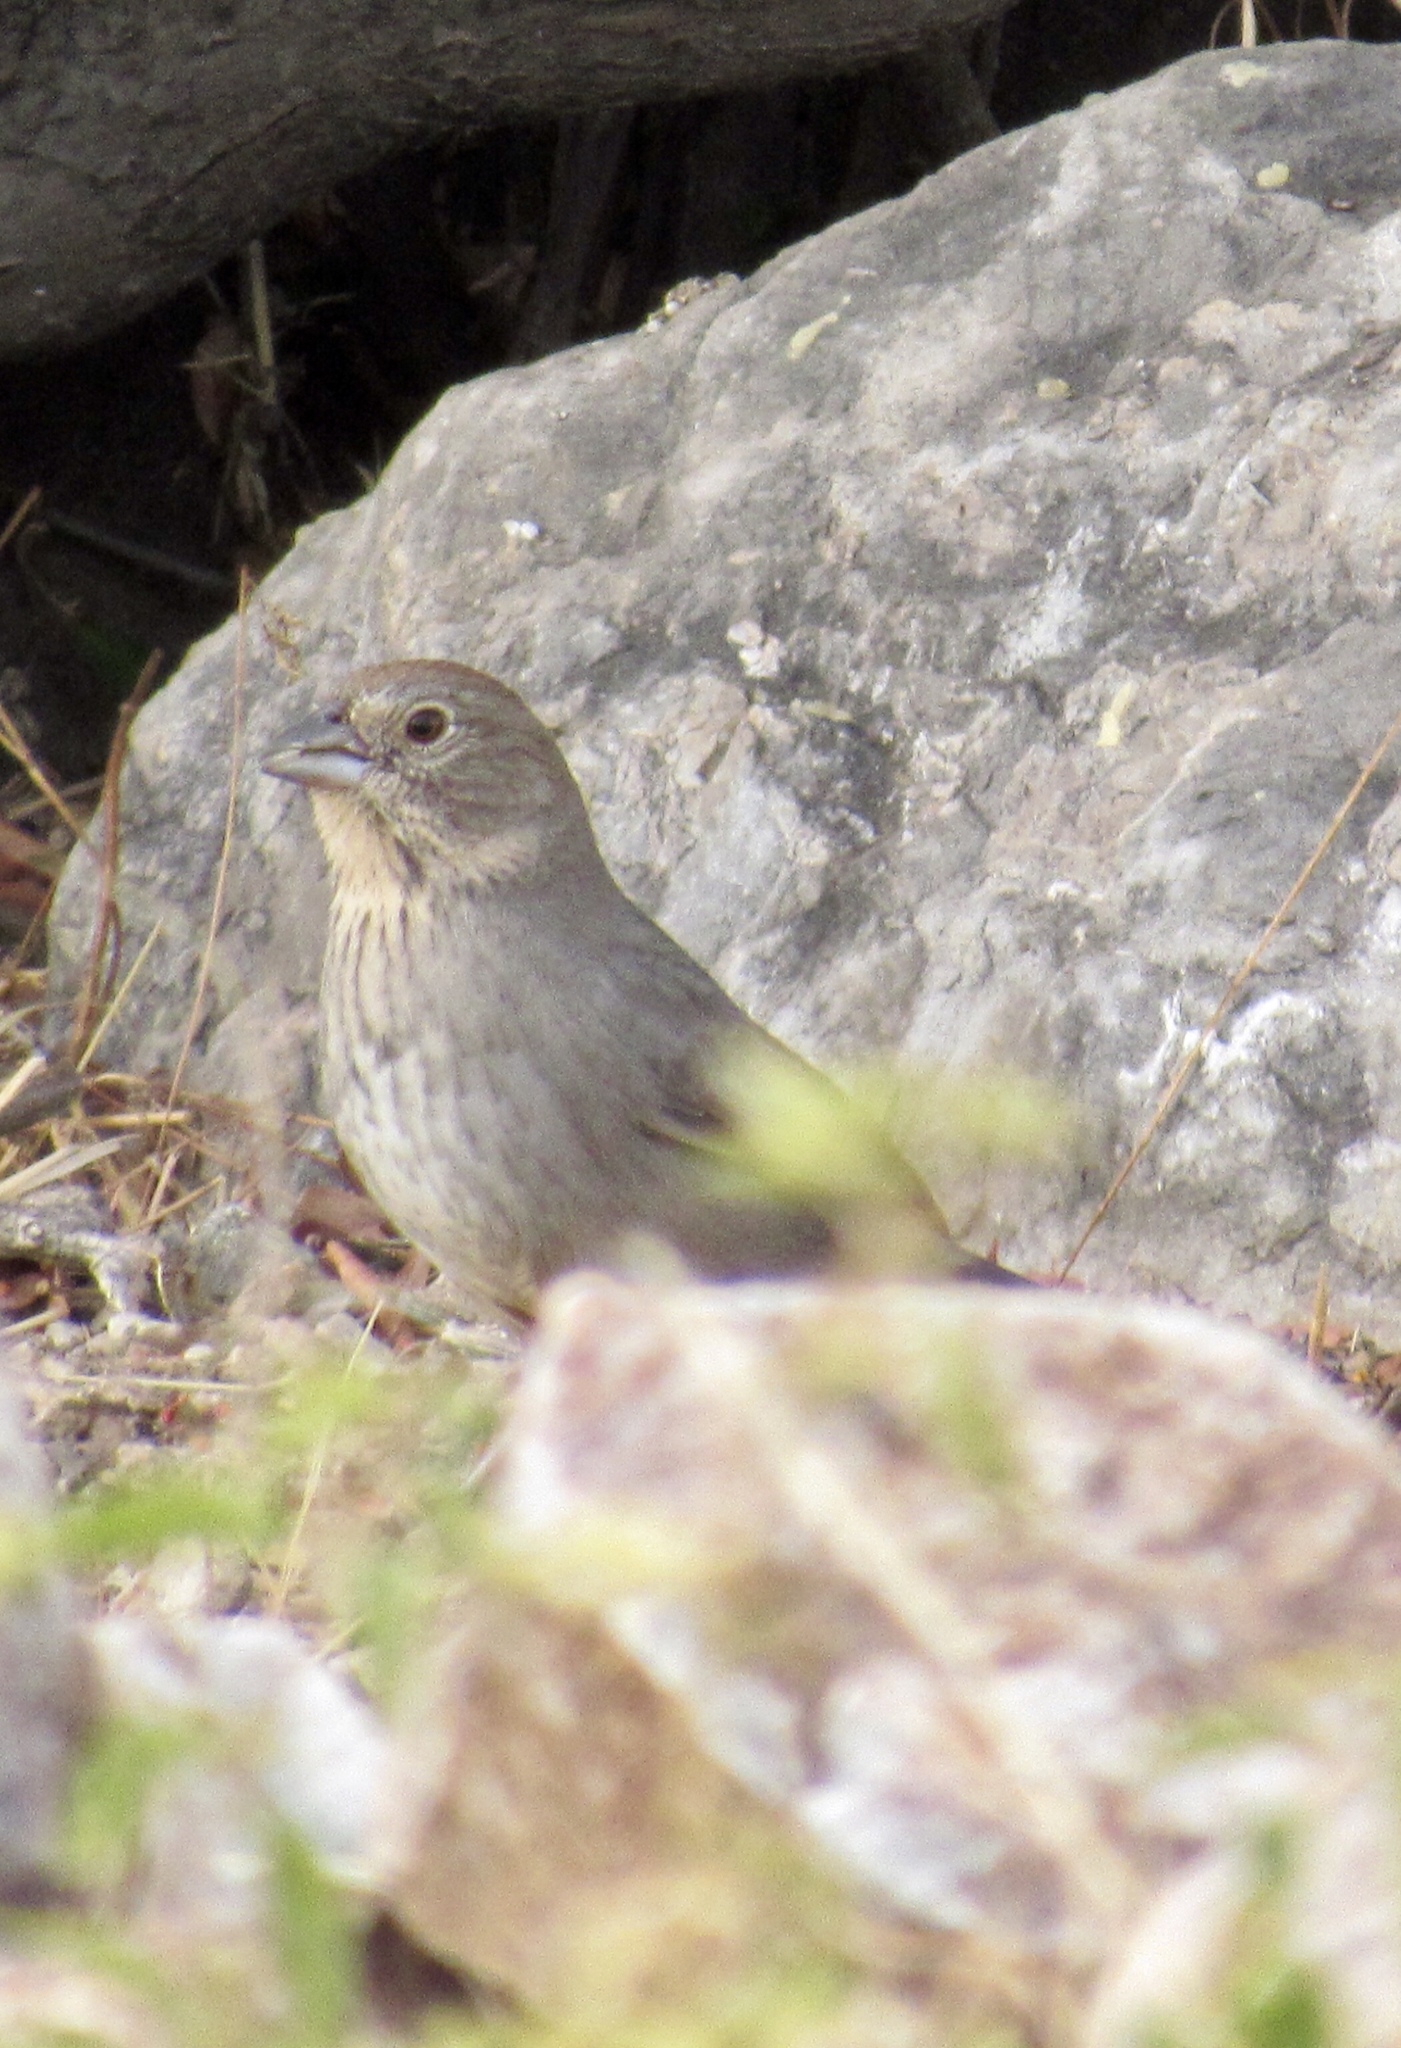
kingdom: Animalia
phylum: Chordata
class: Aves
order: Passeriformes
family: Passerellidae
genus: Melozone
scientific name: Melozone fusca
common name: Canyon towhee
